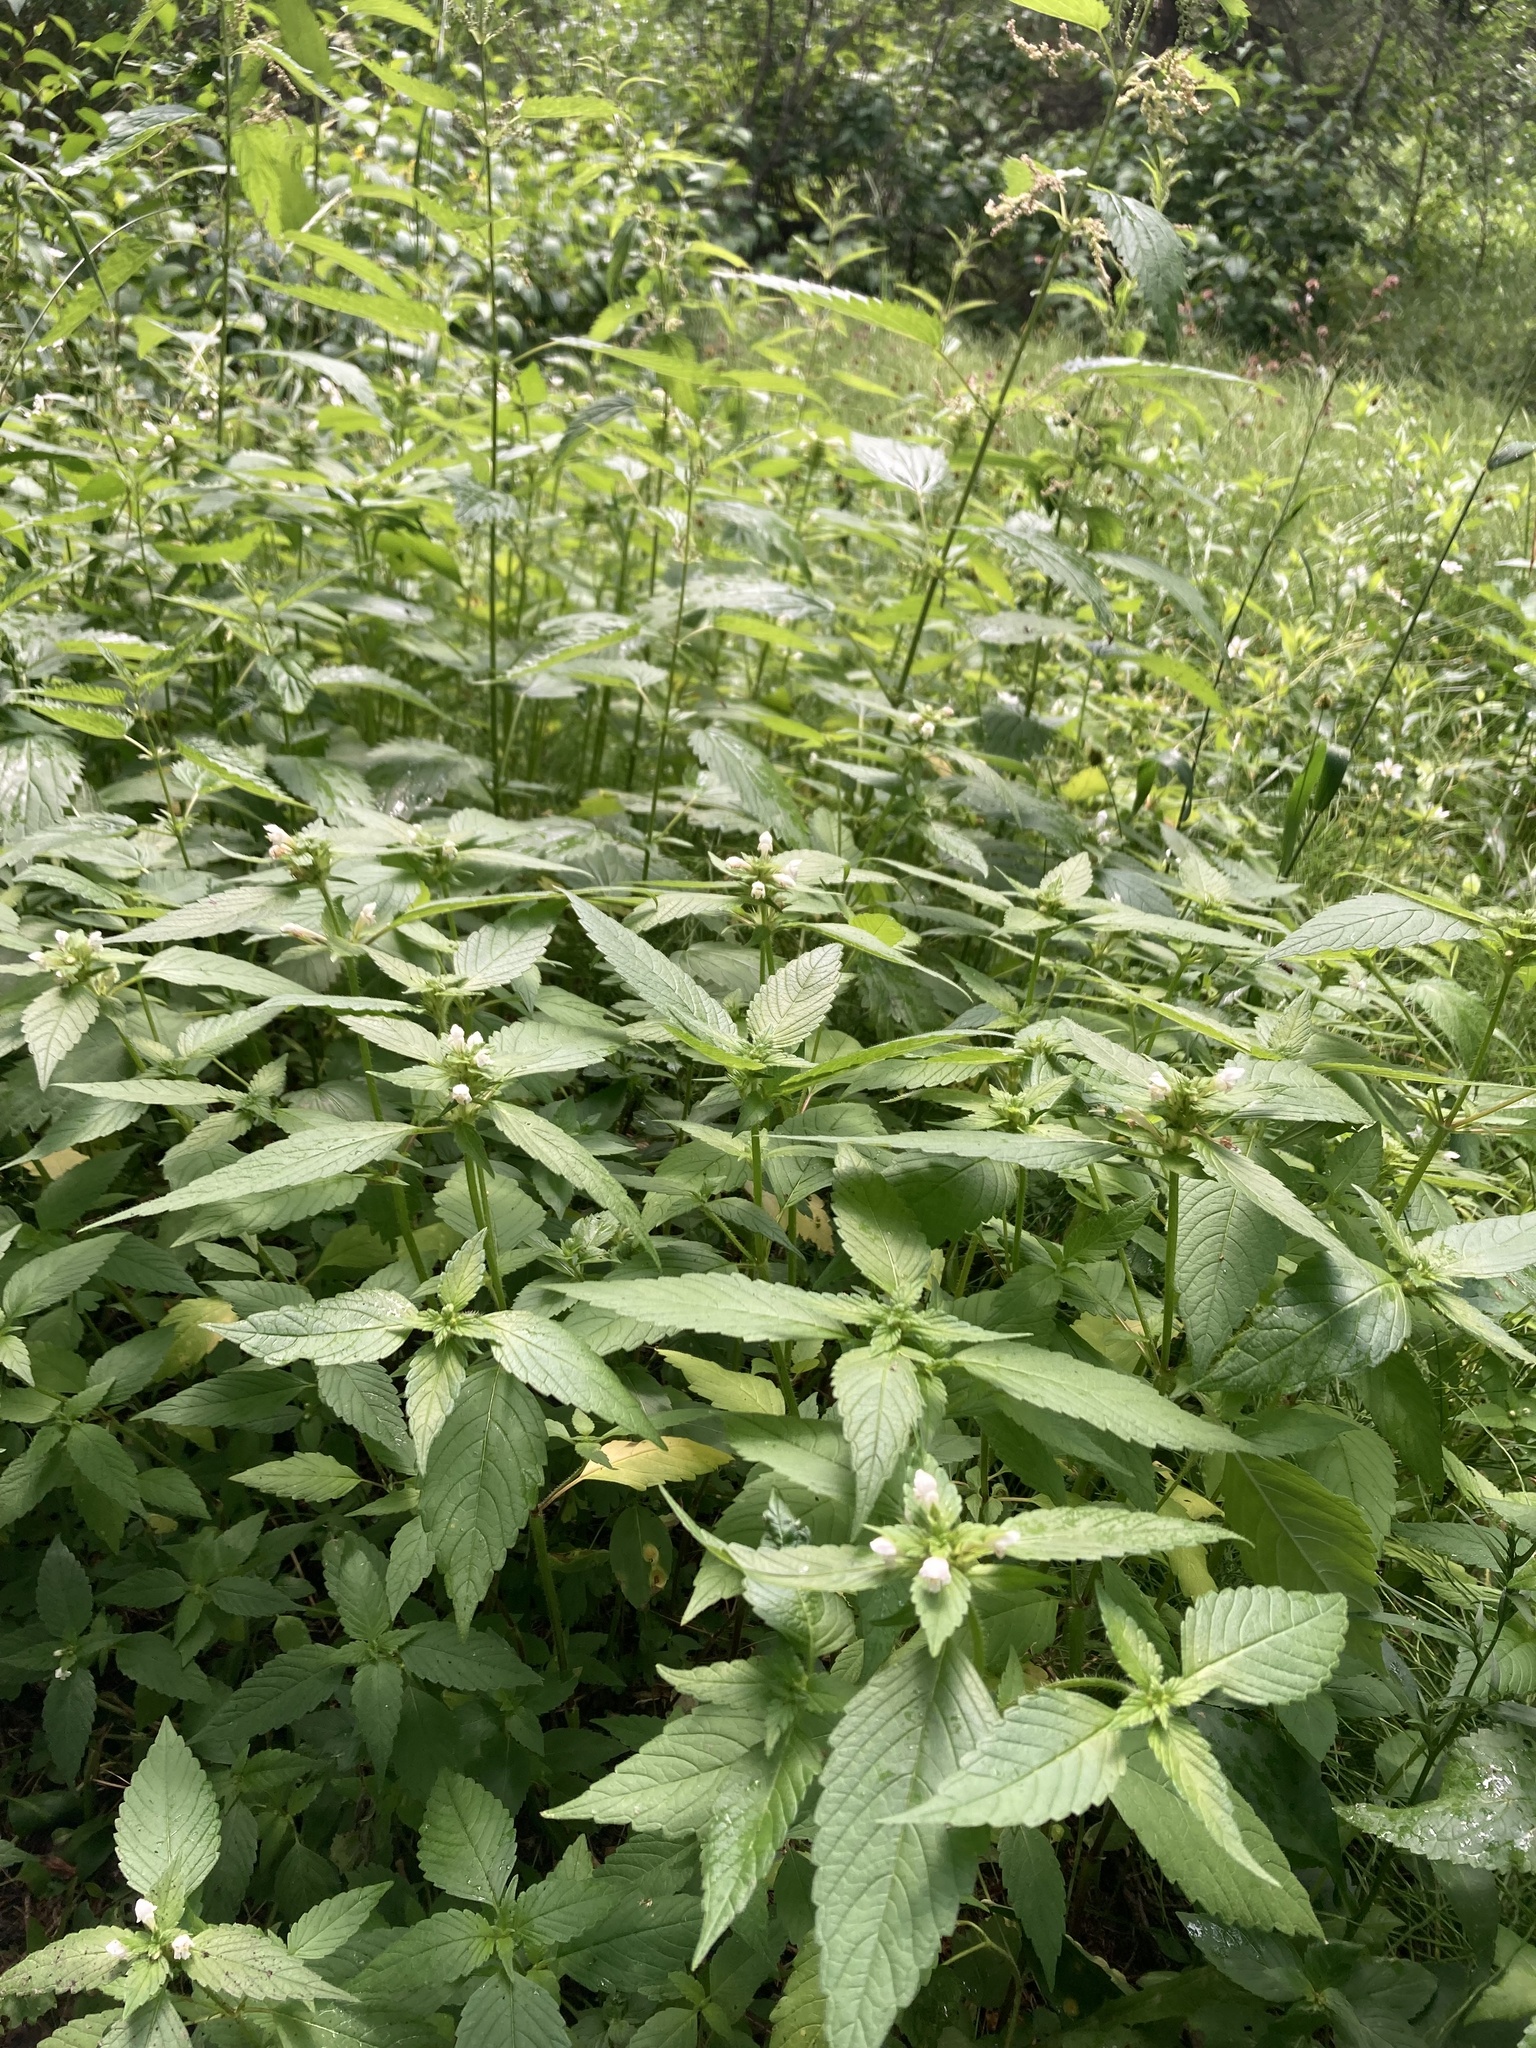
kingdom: Plantae
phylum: Tracheophyta
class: Magnoliopsida
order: Lamiales
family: Lamiaceae
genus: Galeopsis
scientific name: Galeopsis tetrahit
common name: Common hemp-nettle
